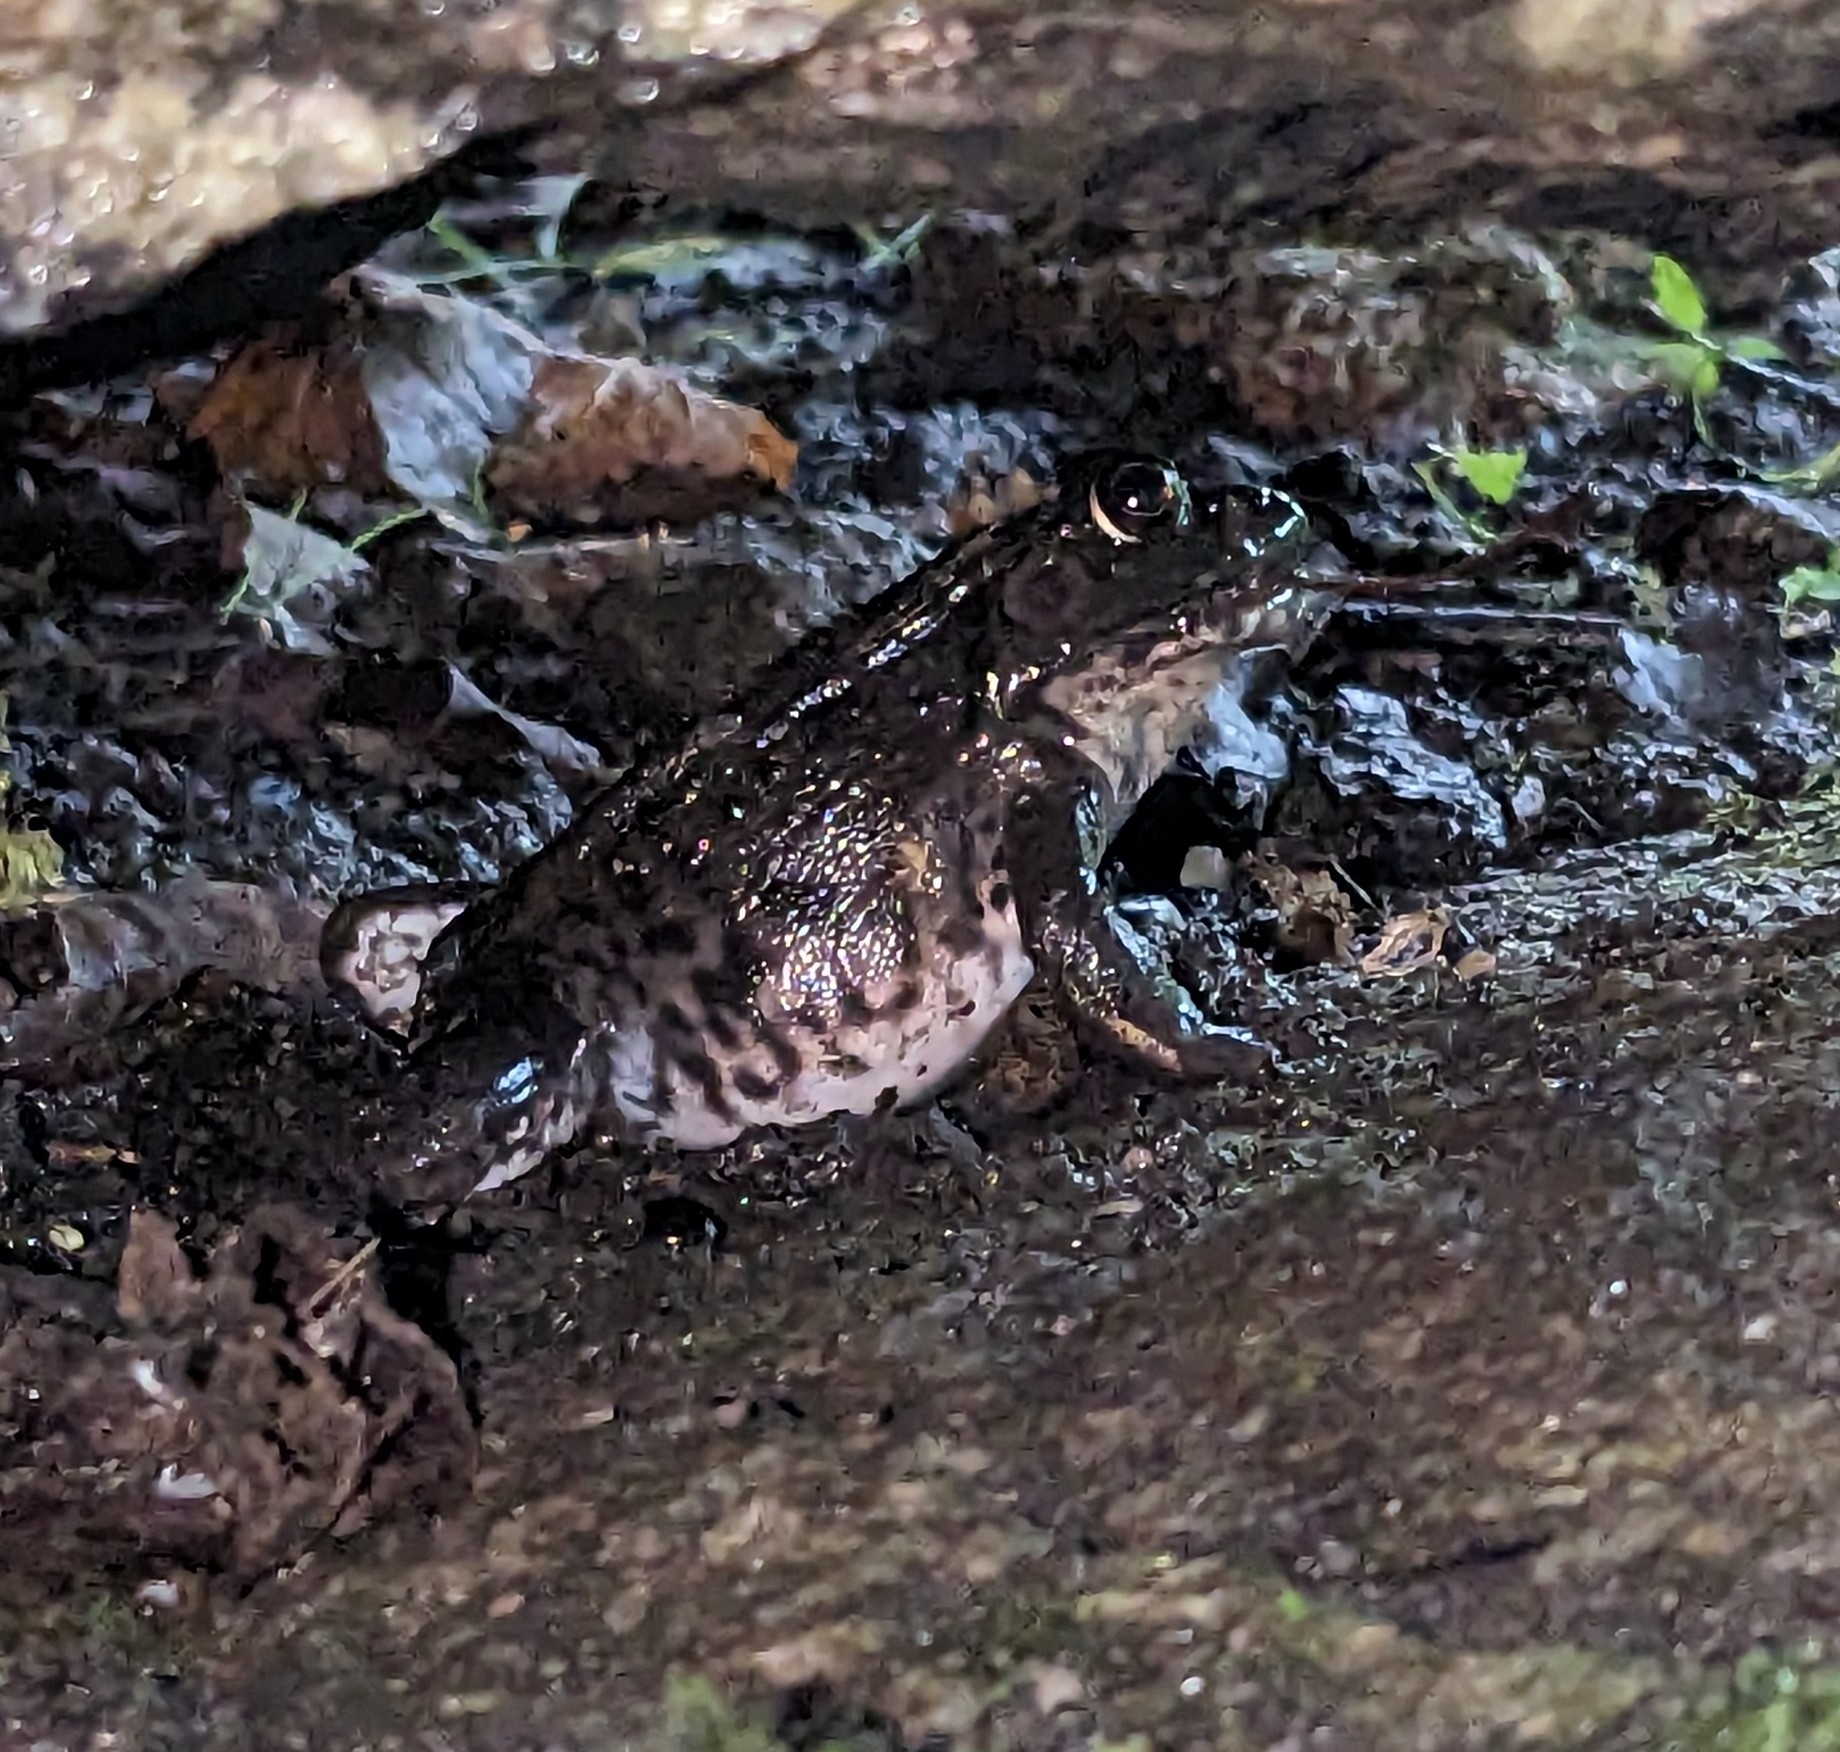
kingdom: Animalia
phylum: Chordata
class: Amphibia
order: Anura
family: Ranidae
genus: Lithobates
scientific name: Lithobates clamitans
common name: Green frog
